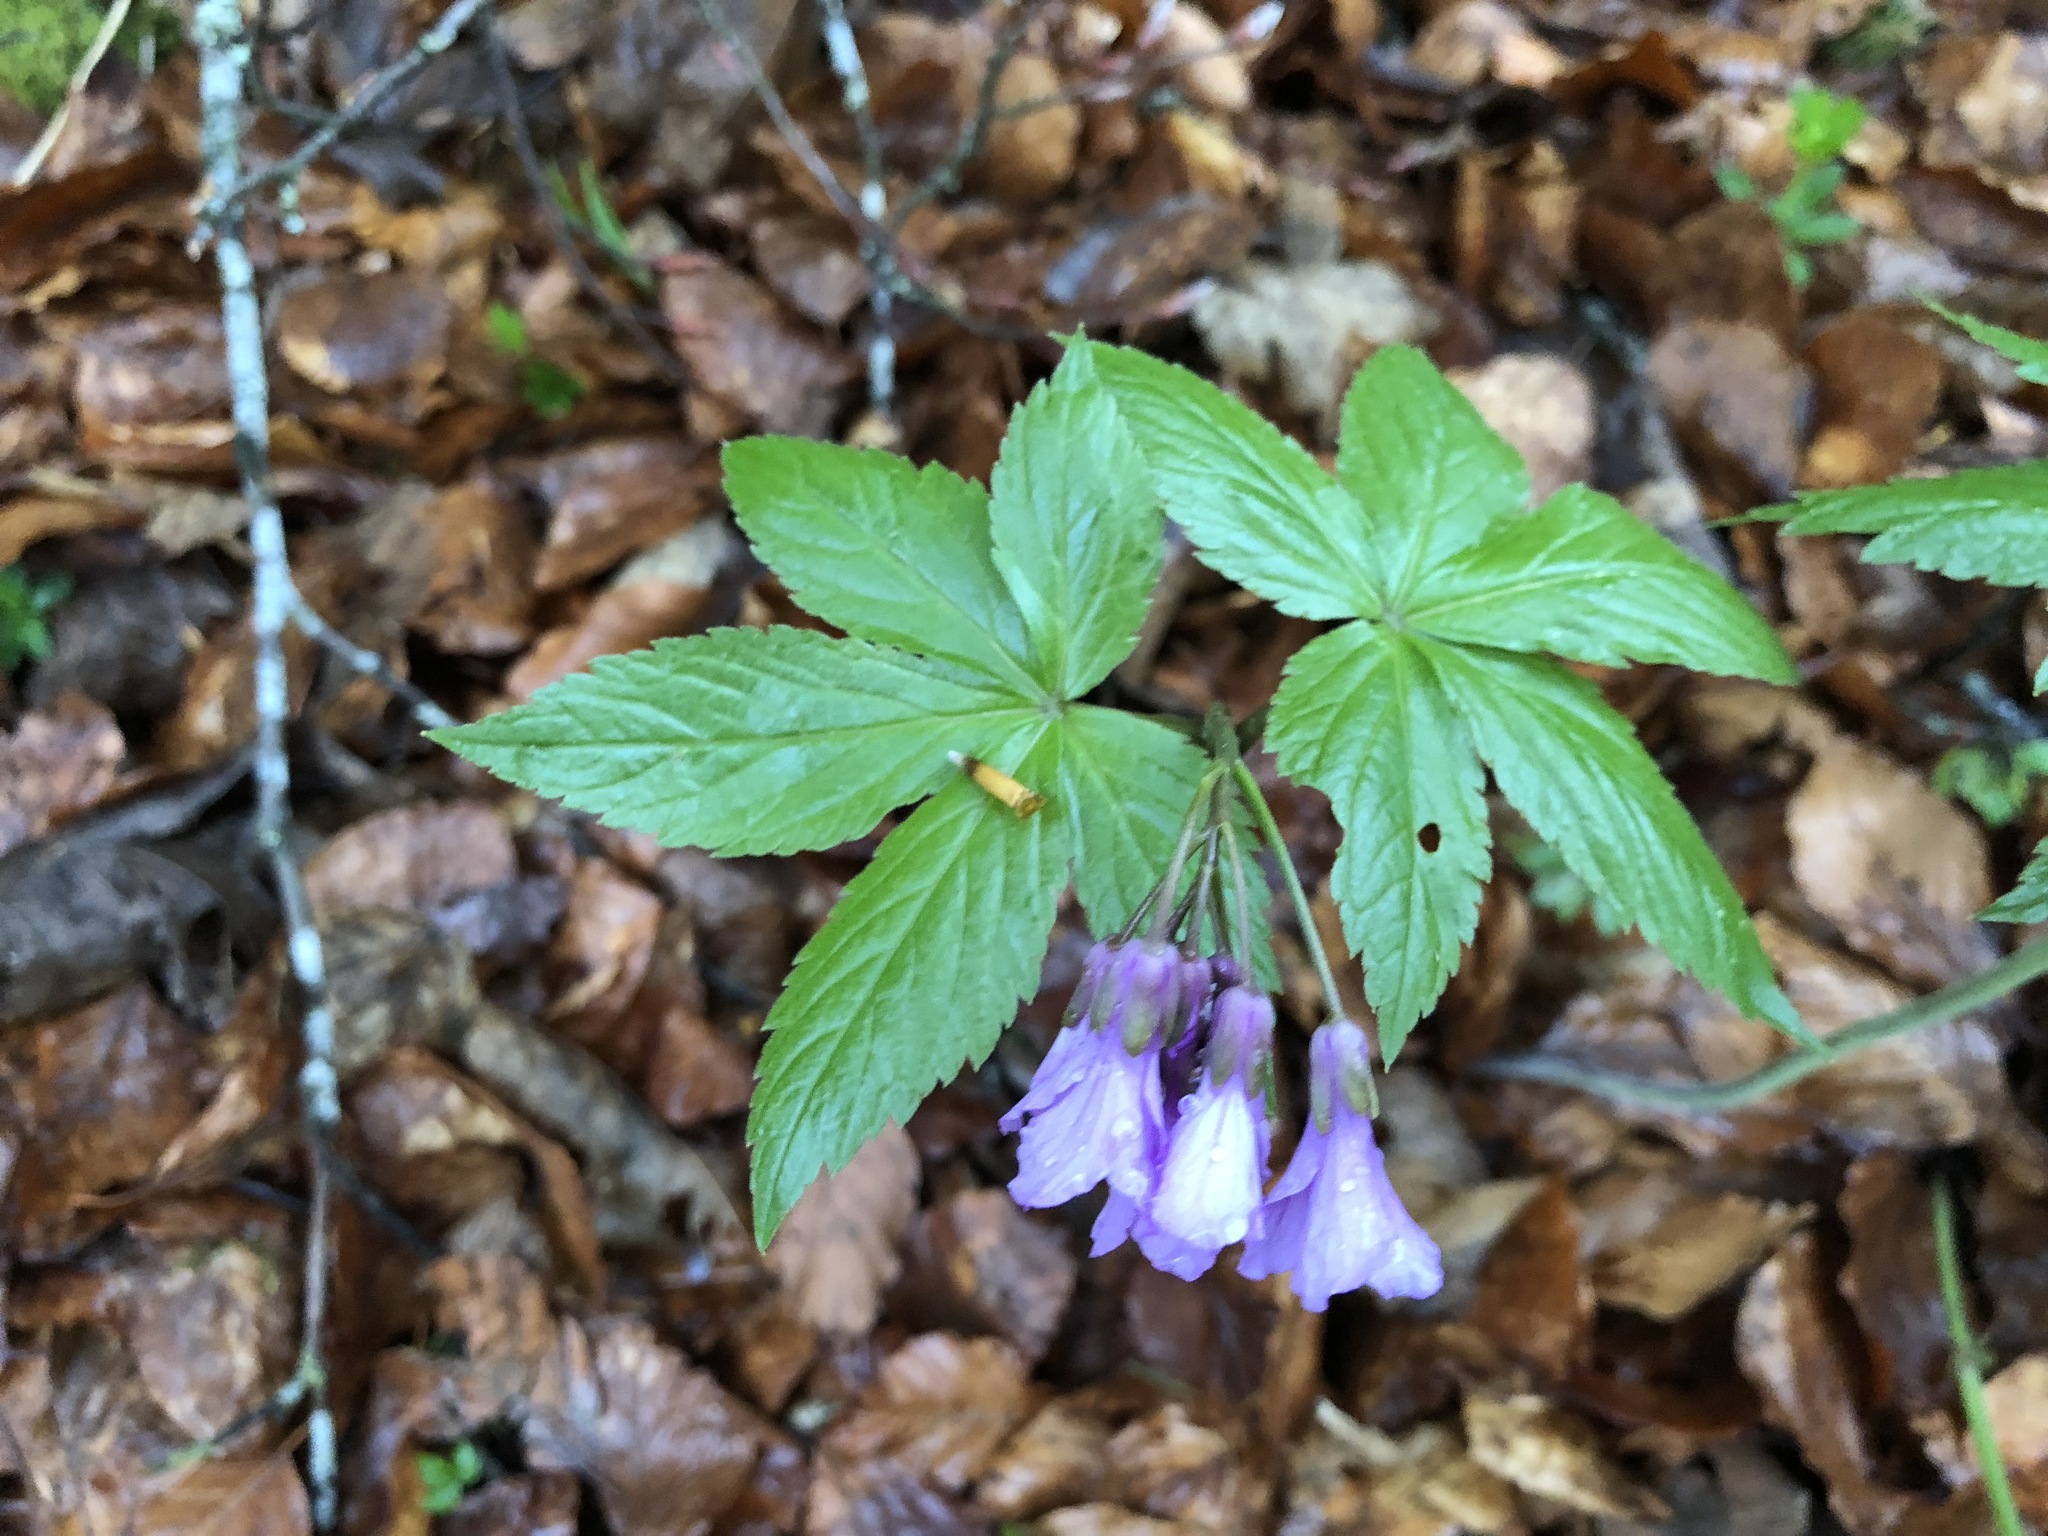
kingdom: Plantae
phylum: Tracheophyta
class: Magnoliopsida
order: Brassicales
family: Brassicaceae
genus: Cardamine
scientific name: Cardamine pentaphyllos
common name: Five-leaflet bitter-cress
